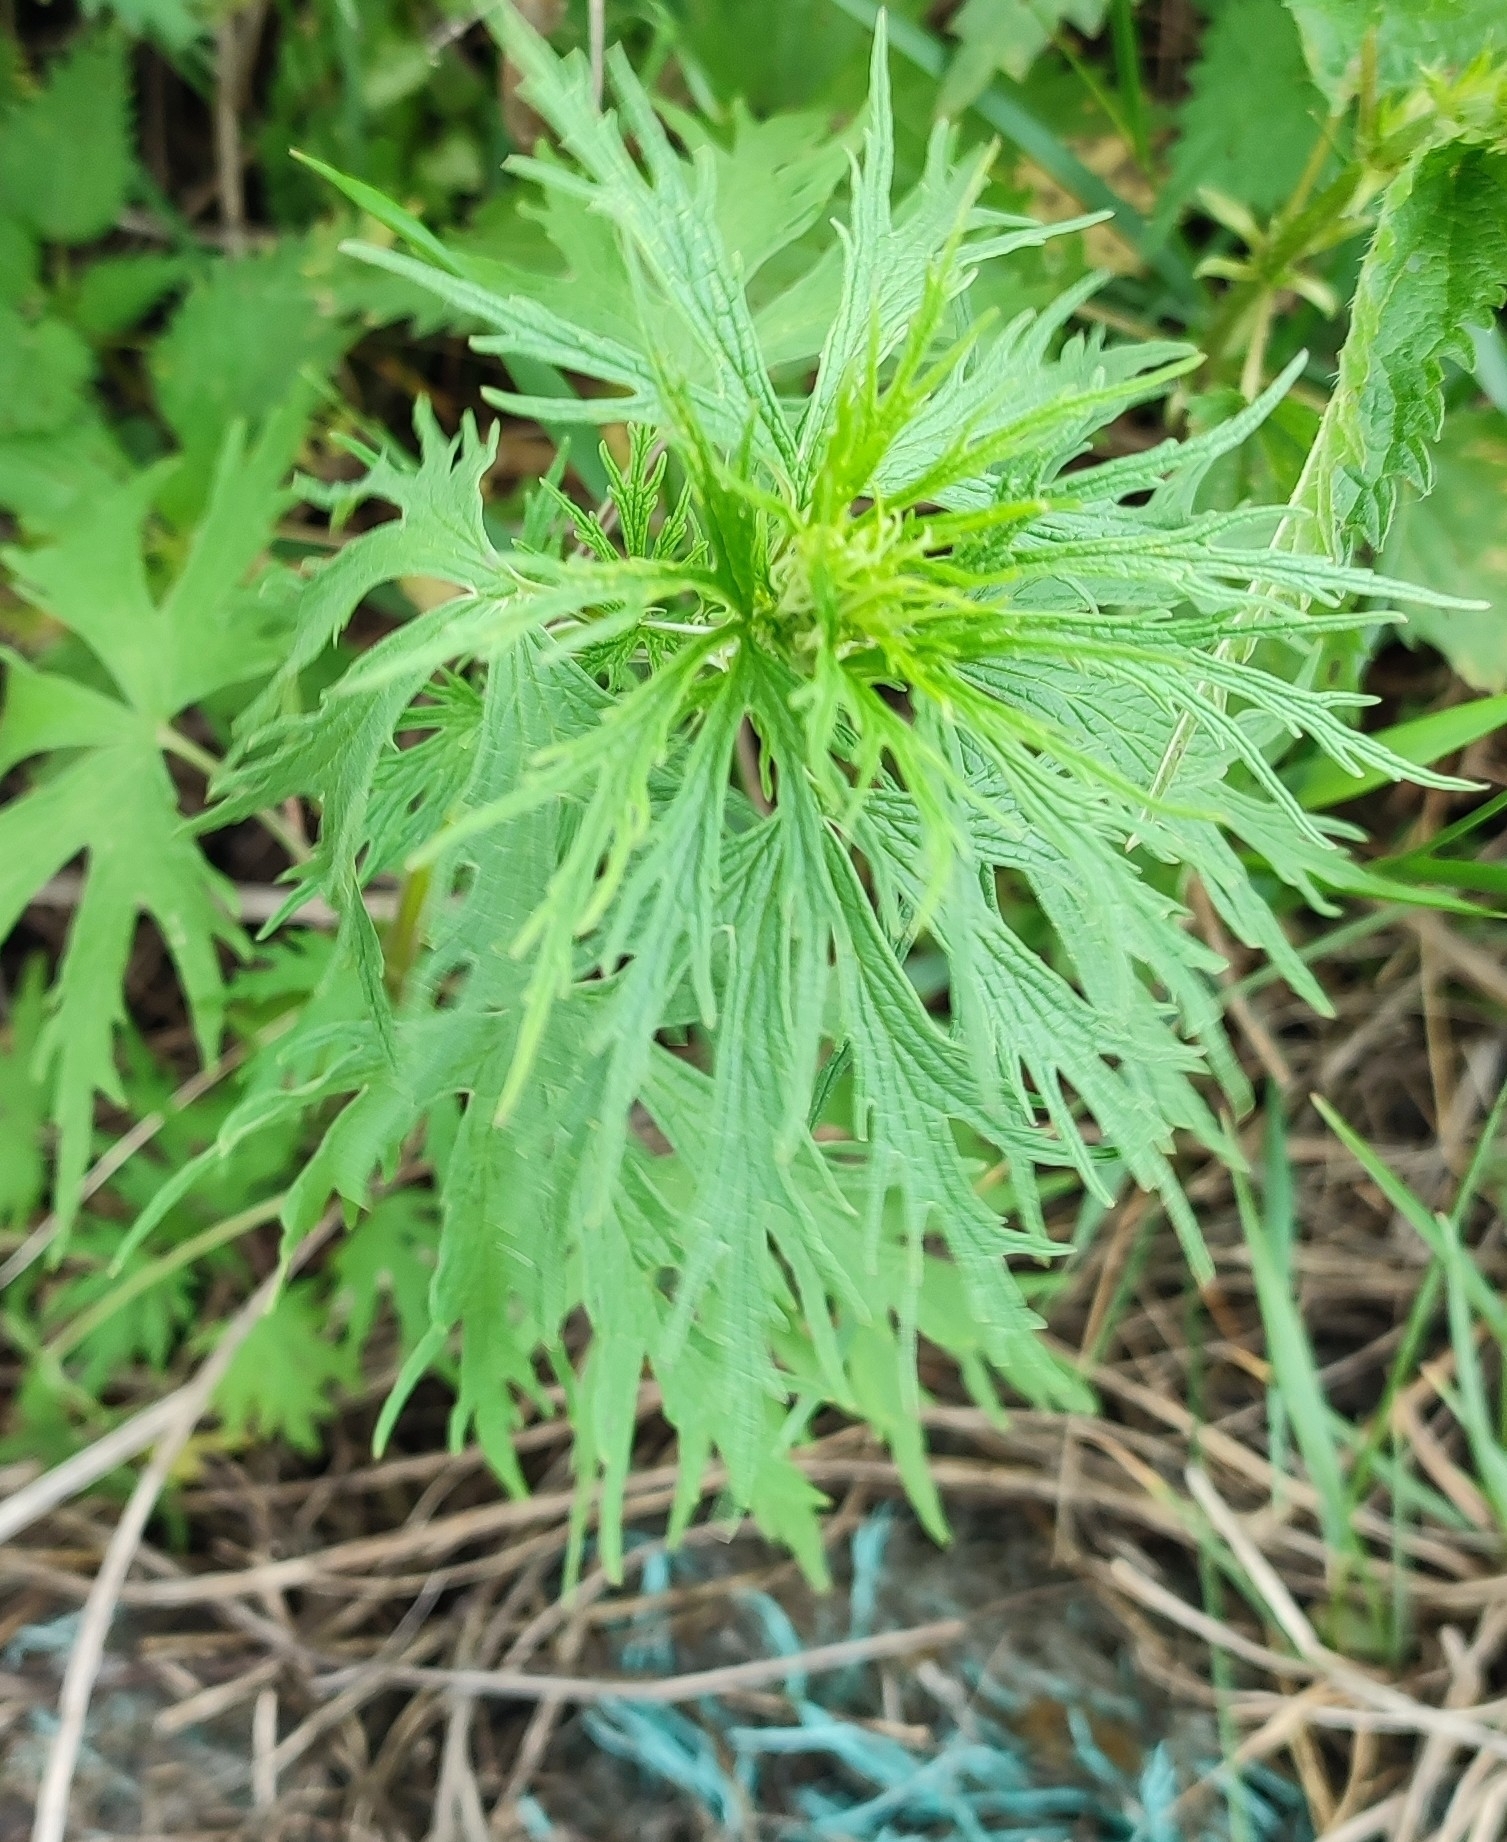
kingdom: Plantae
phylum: Tracheophyta
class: Magnoliopsida
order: Lamiales
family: Lamiaceae
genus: Leonurus
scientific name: Leonurus glaucescens
